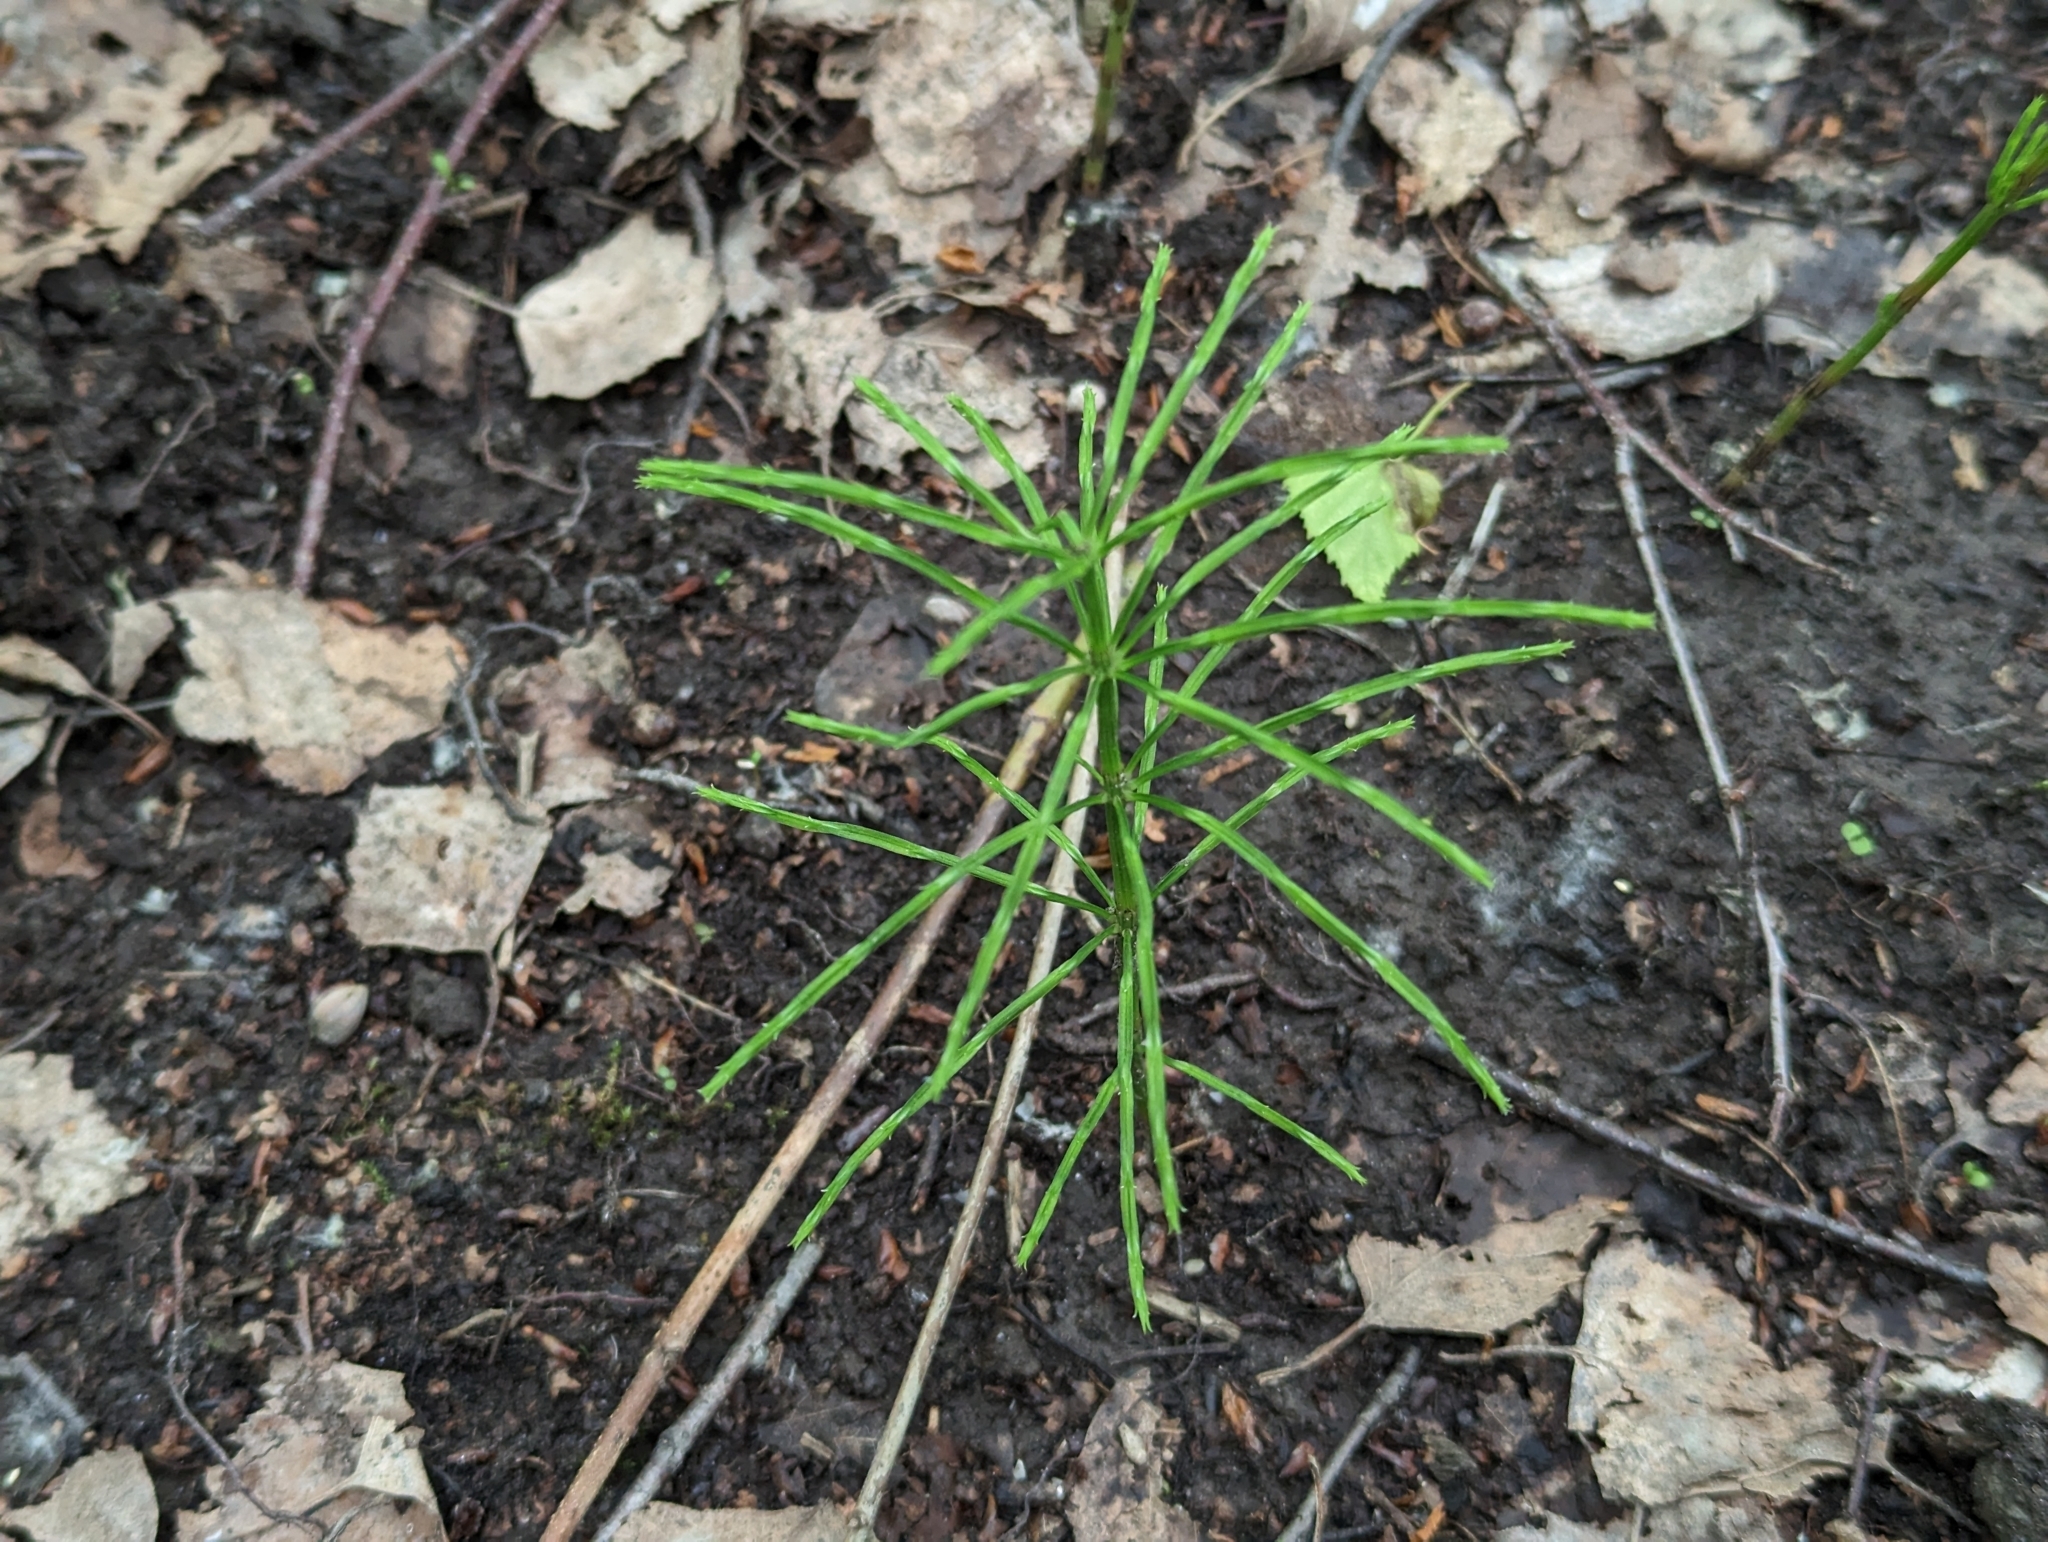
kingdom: Plantae
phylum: Tracheophyta
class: Polypodiopsida
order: Equisetales
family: Equisetaceae
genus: Equisetum
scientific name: Equisetum arvense
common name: Field horsetail
